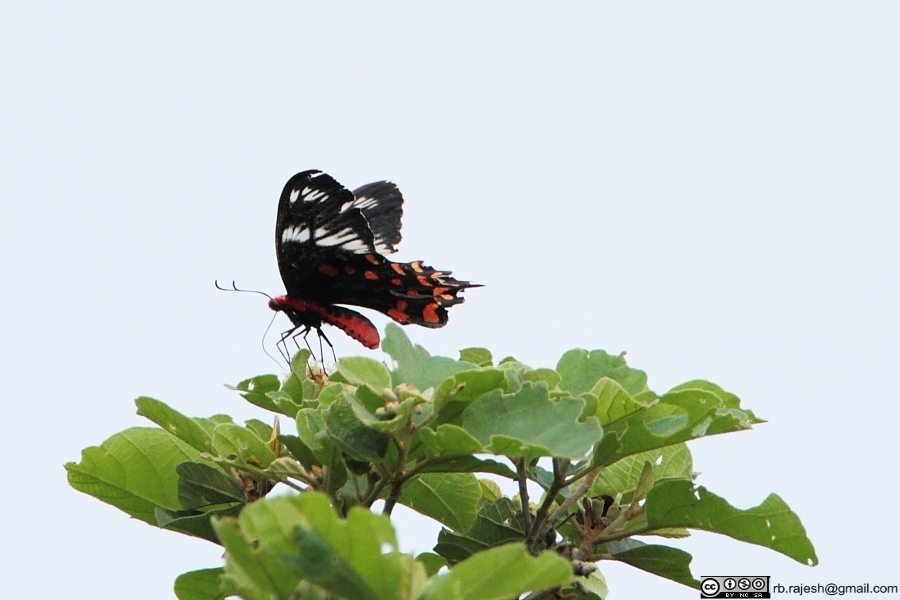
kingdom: Animalia
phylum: Arthropoda
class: Insecta
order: Lepidoptera
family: Papilionidae
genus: Pachliopta
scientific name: Pachliopta hector
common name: Crimson rose
